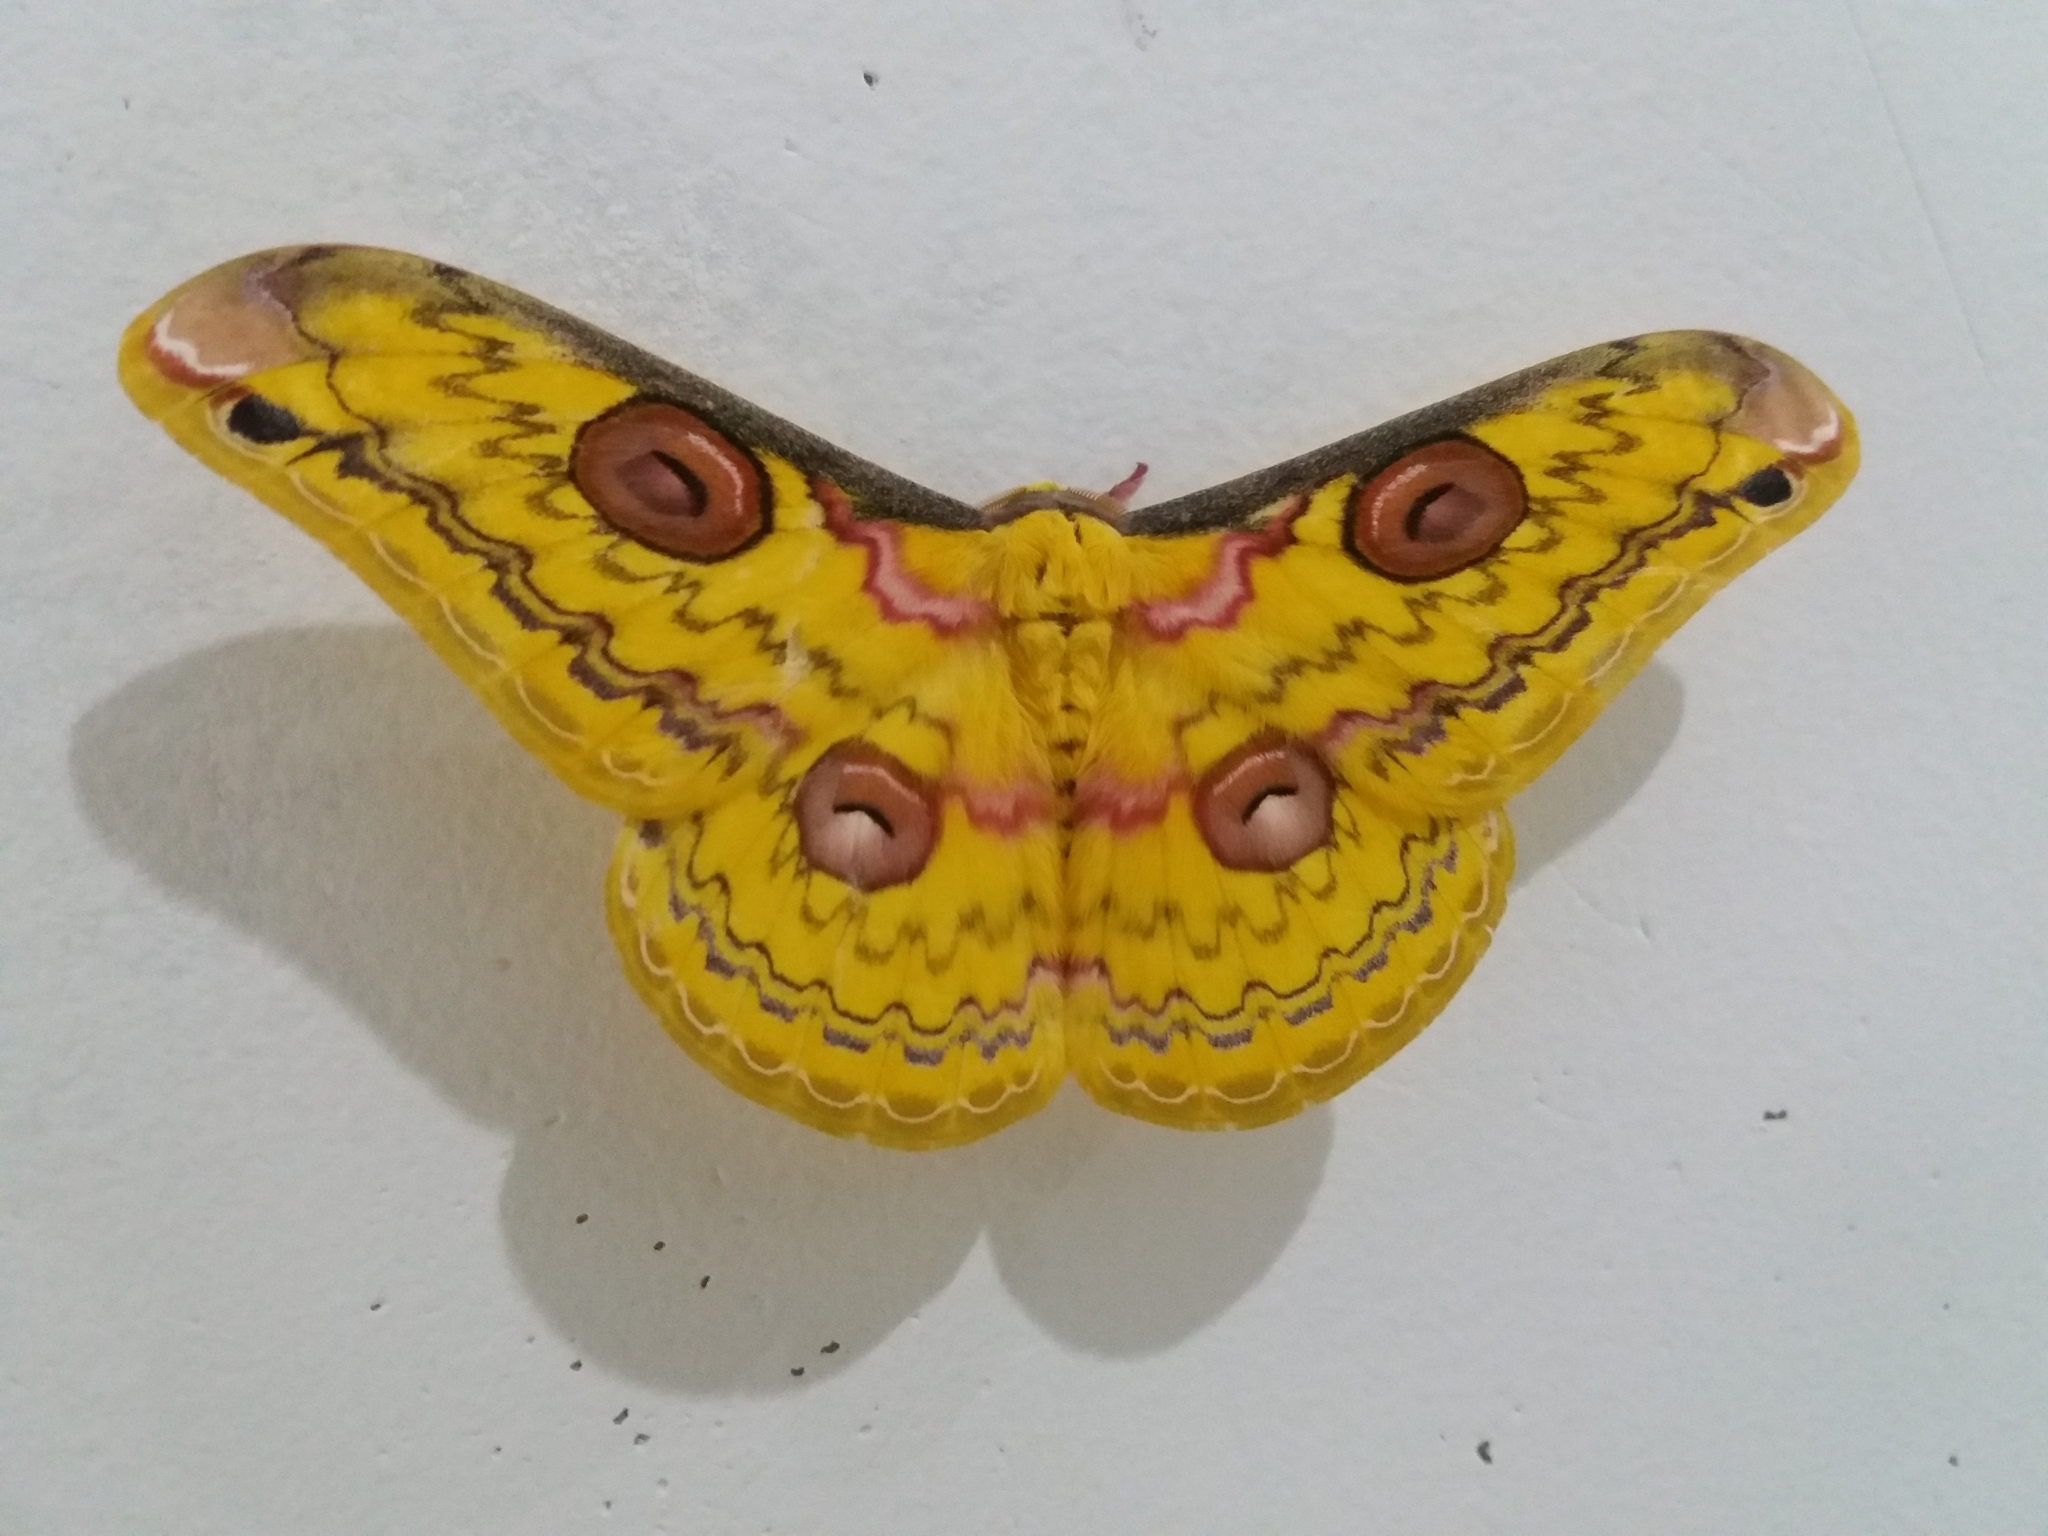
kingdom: Animalia
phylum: Arthropoda
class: Insecta
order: Lepidoptera
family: Saturniidae
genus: Loepa
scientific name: Loepa schintlmeisteri
